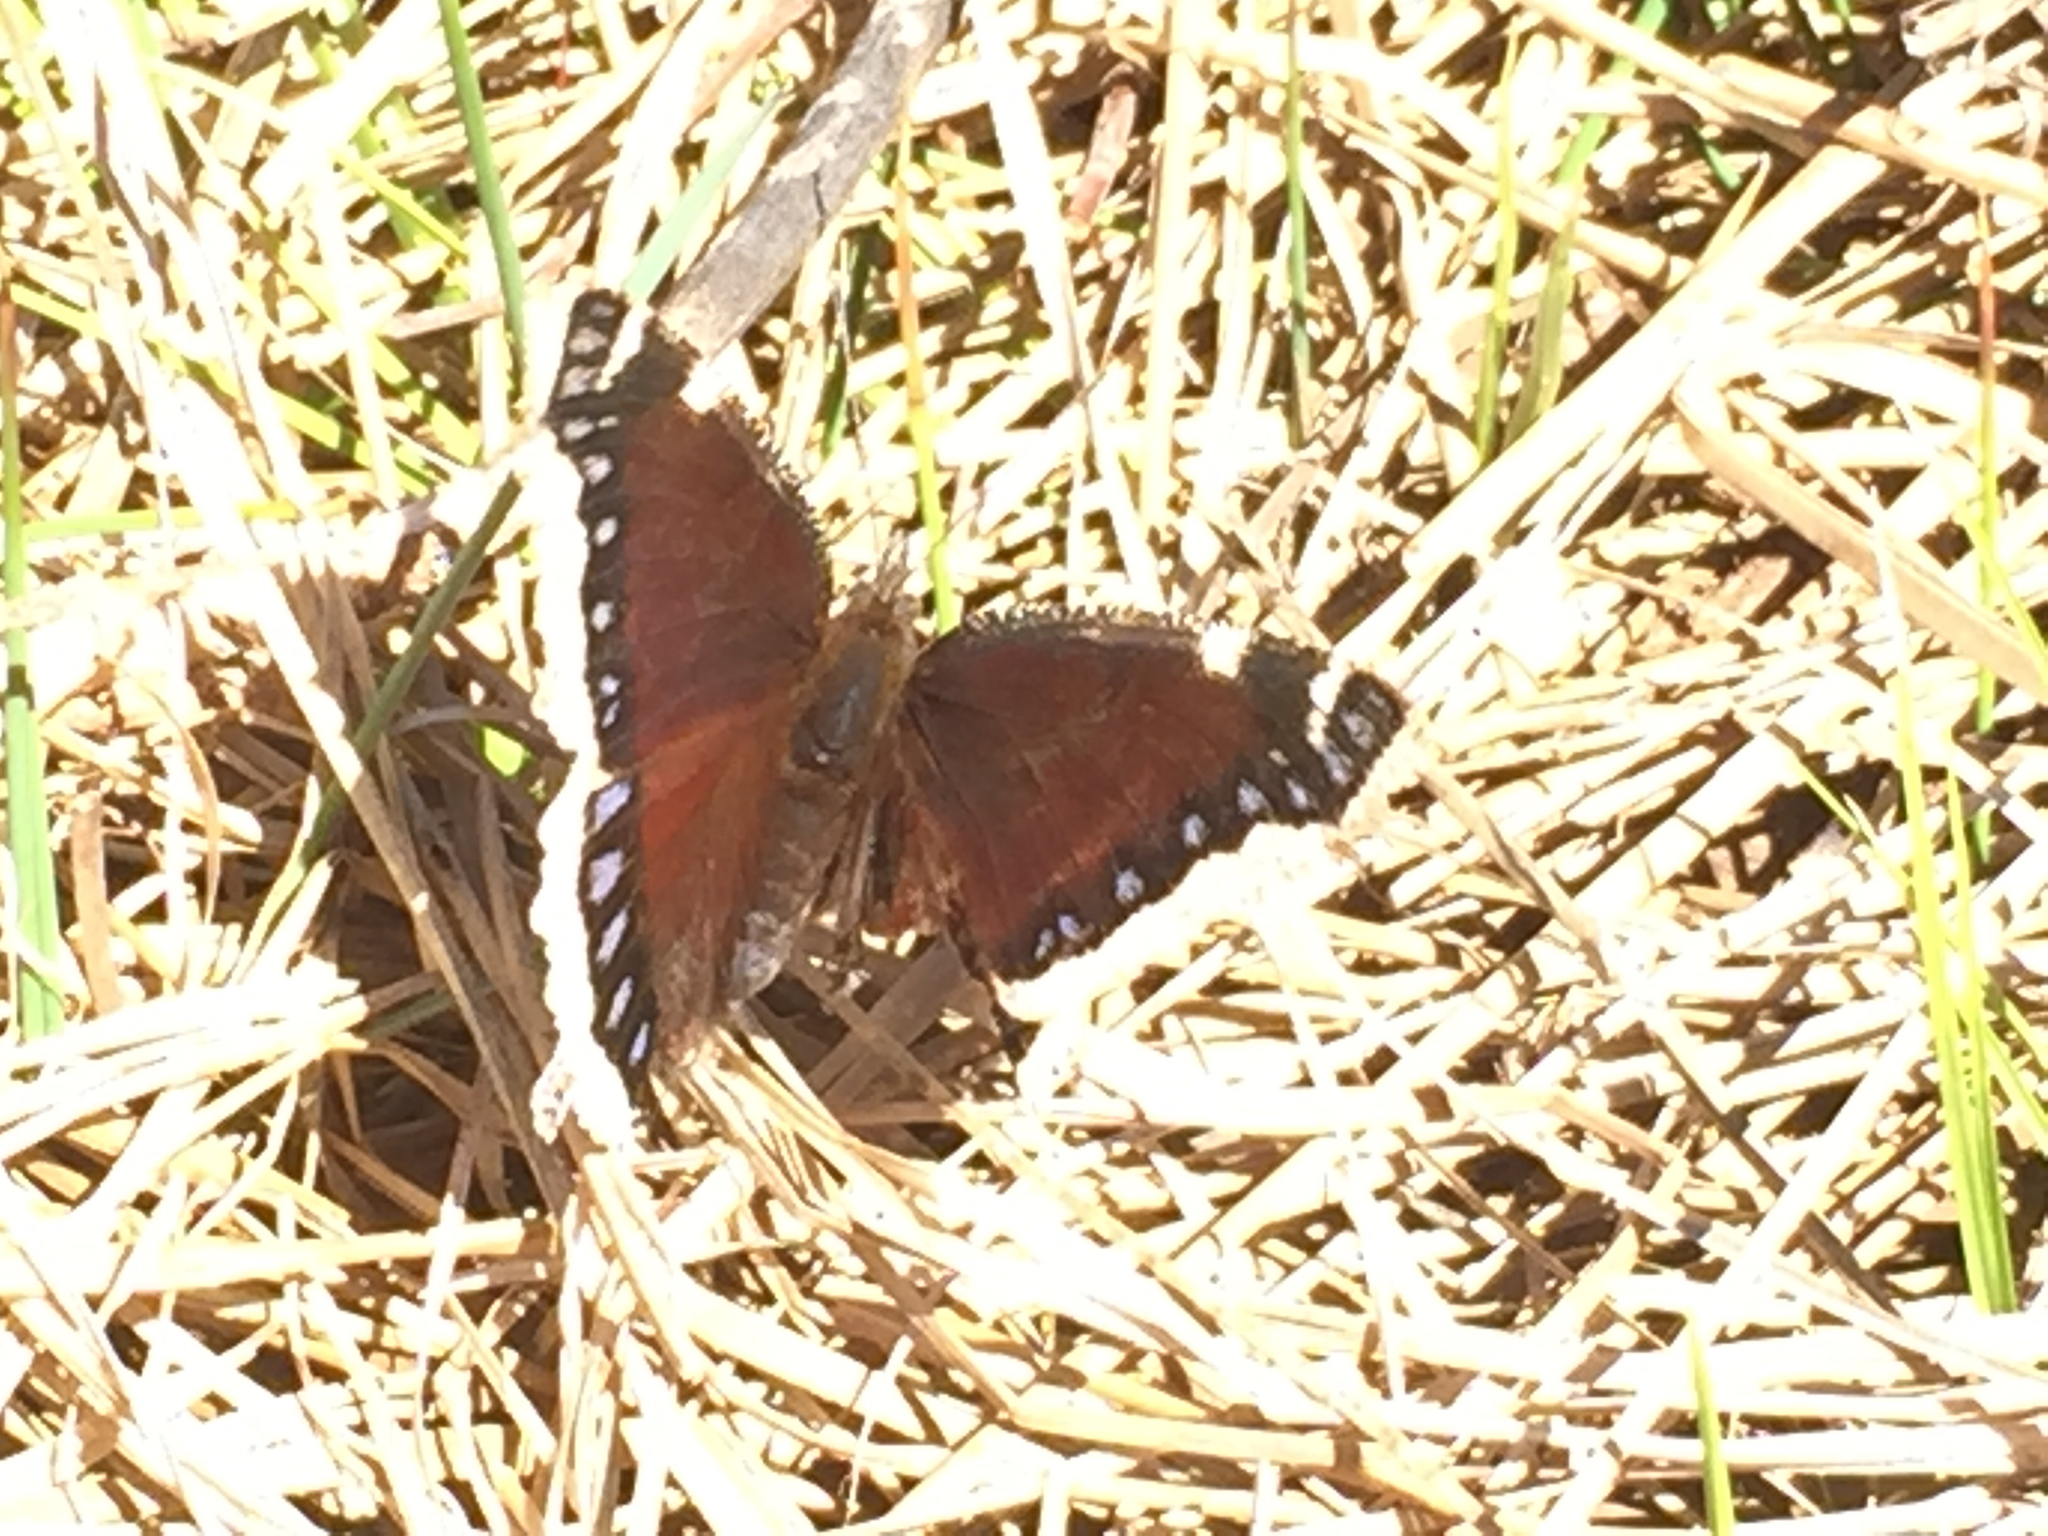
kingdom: Animalia
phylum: Arthropoda
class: Insecta
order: Lepidoptera
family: Nymphalidae
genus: Nymphalis
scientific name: Nymphalis antiopa
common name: Camberwell beauty
